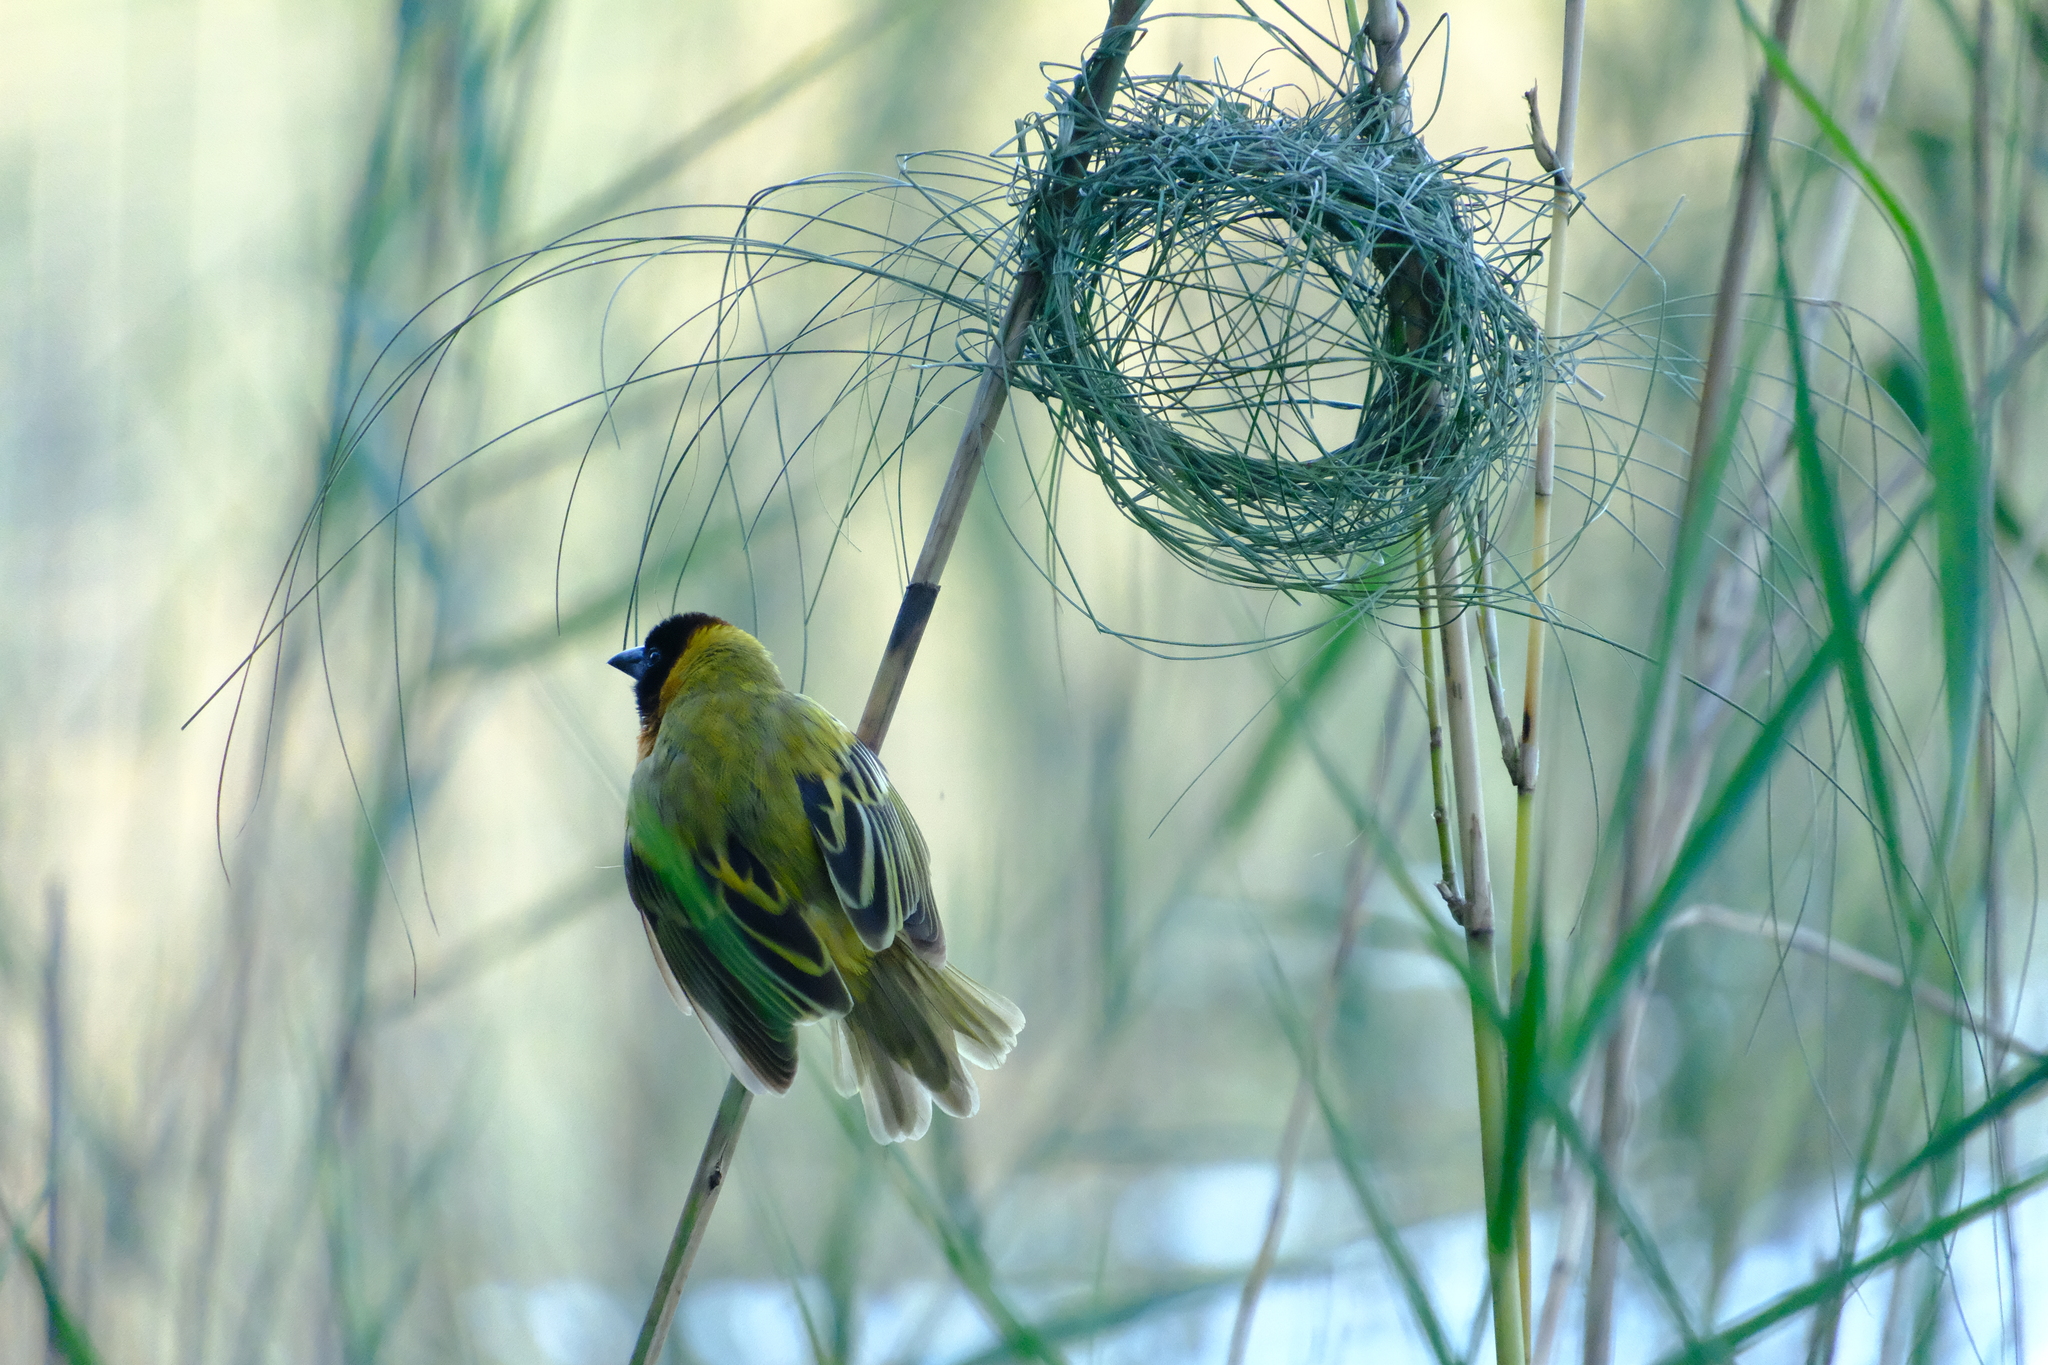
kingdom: Animalia
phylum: Chordata
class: Aves
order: Passeriformes
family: Ploceidae
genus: Ploceus
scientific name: Ploceus melanocephalus
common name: Black-headed weaver
